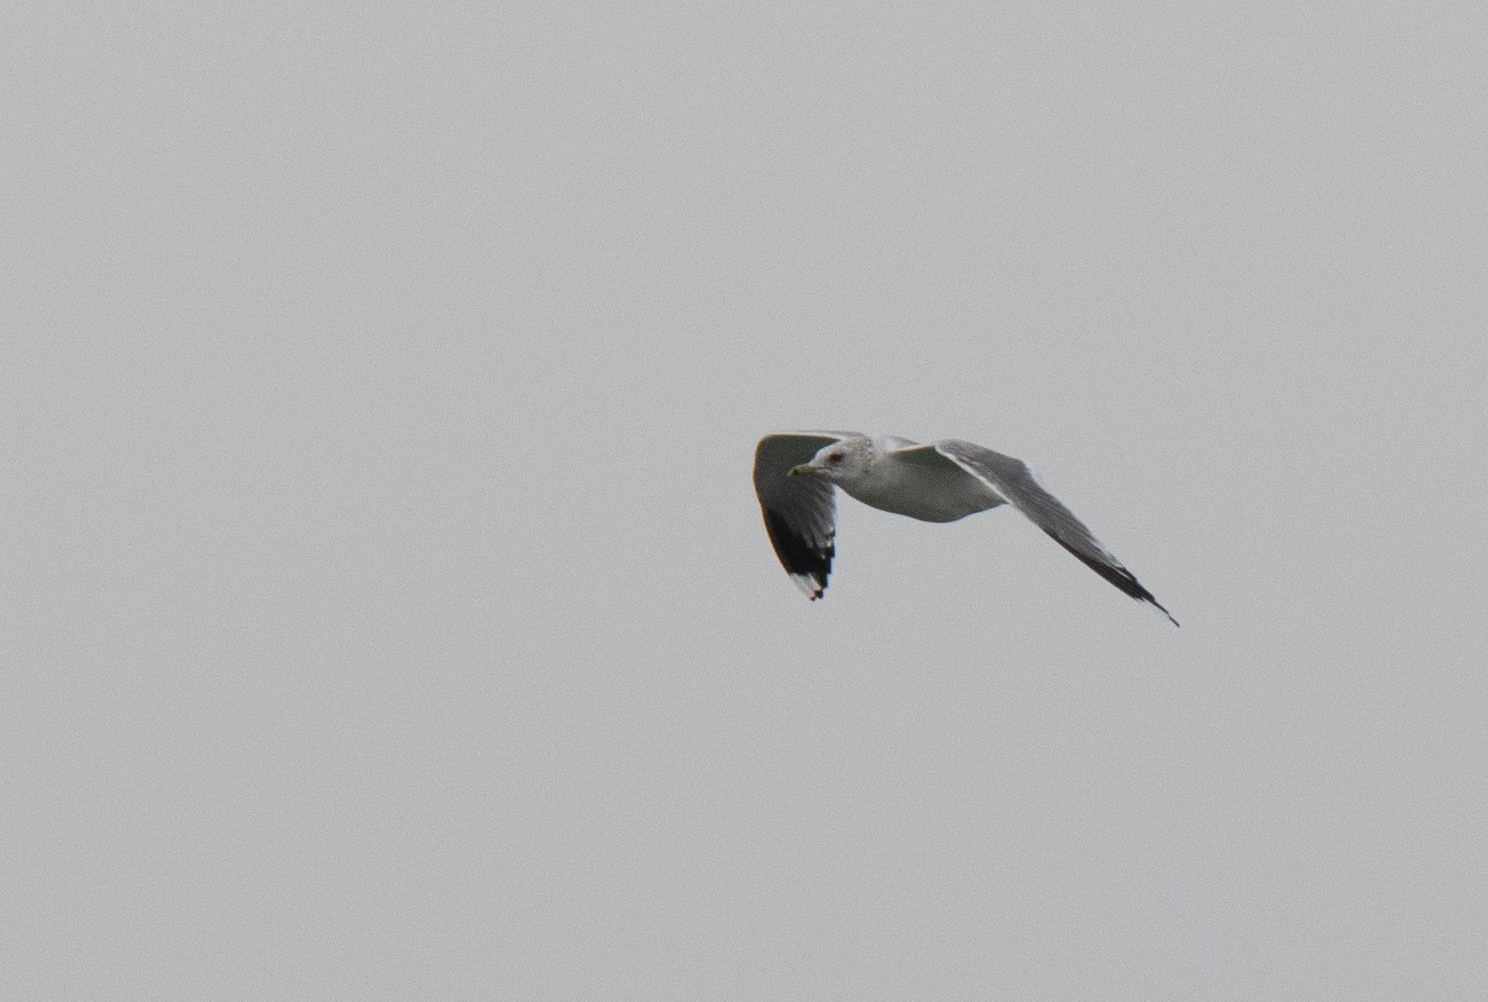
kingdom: Animalia
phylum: Chordata
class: Aves
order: Charadriiformes
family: Laridae
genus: Larus
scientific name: Larus canus
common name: Mew gull
